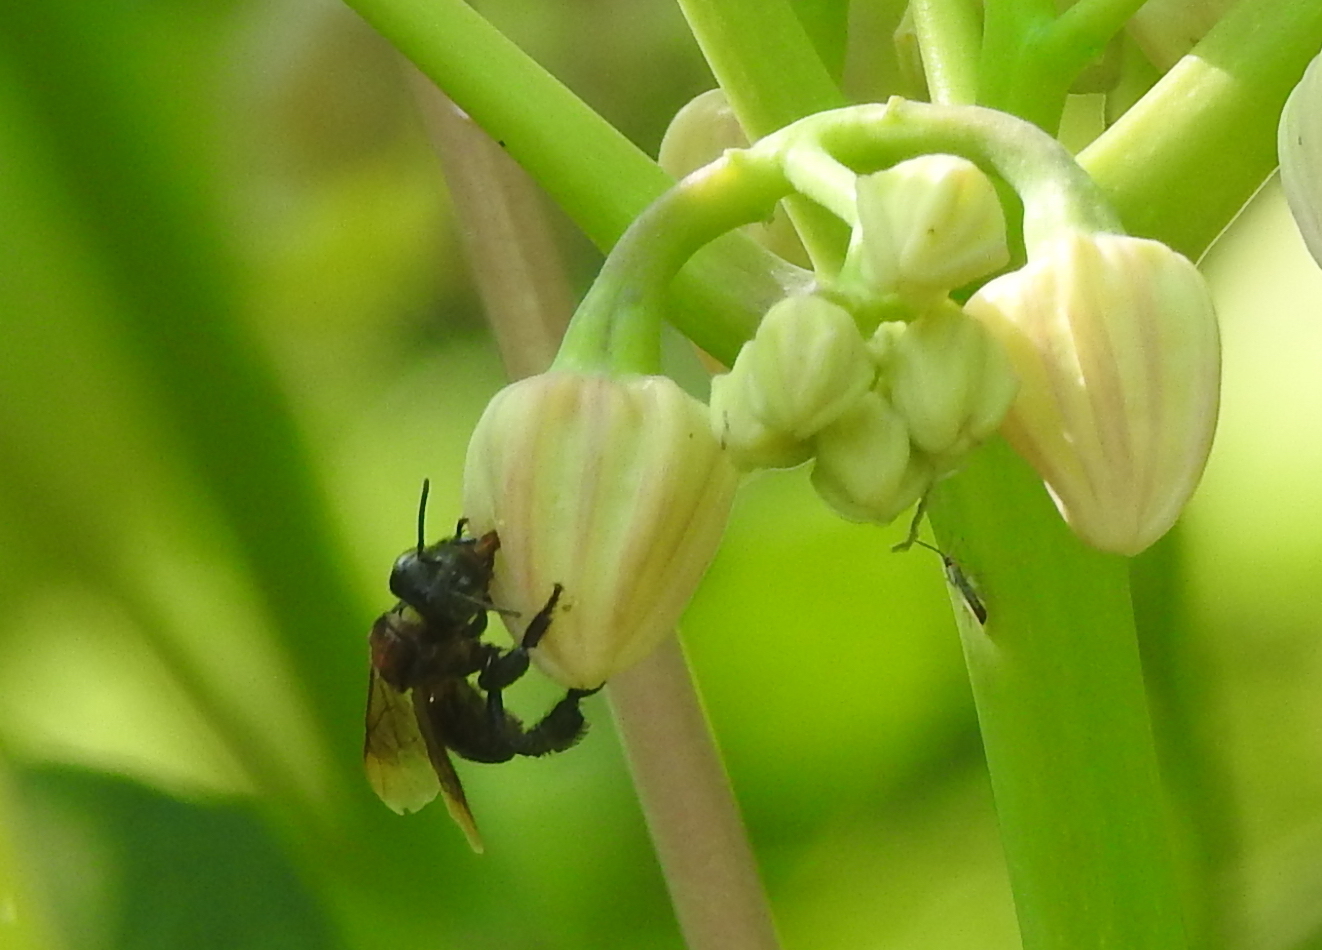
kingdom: Animalia
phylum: Arthropoda
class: Insecta
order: Hymenoptera
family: Apidae
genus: Geniotrigona
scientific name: Geniotrigona thoracica
